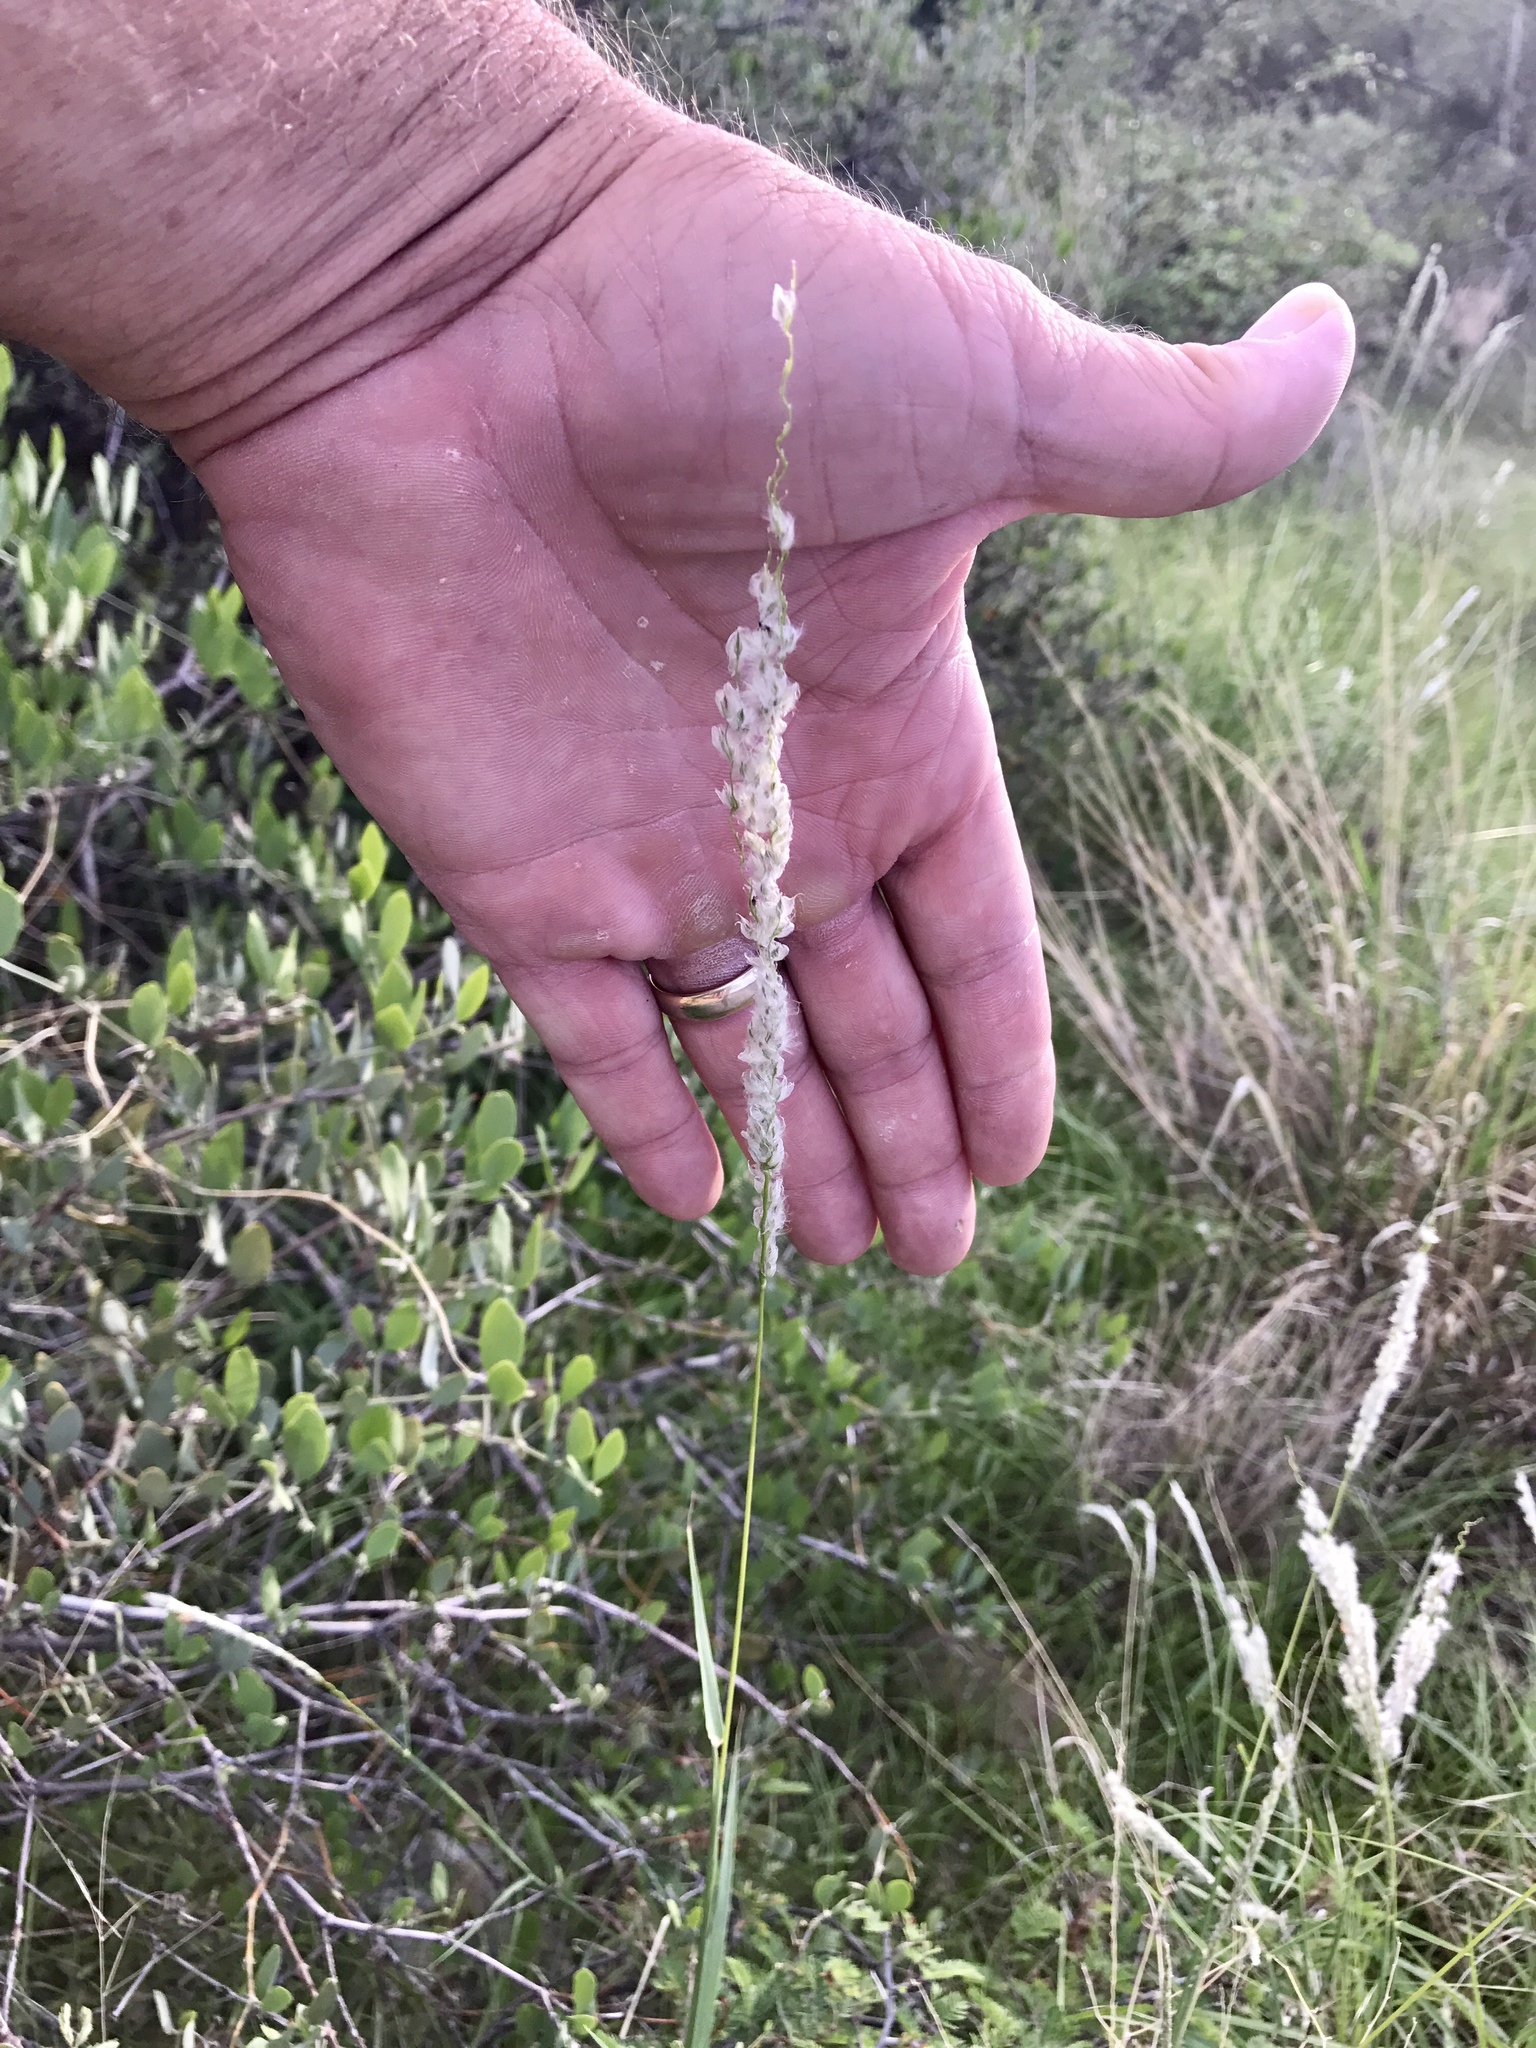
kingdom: Plantae
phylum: Tracheophyta
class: Liliopsida
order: Poales
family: Poaceae
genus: Digitaria
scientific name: Digitaria californica
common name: Arizona cottontop
